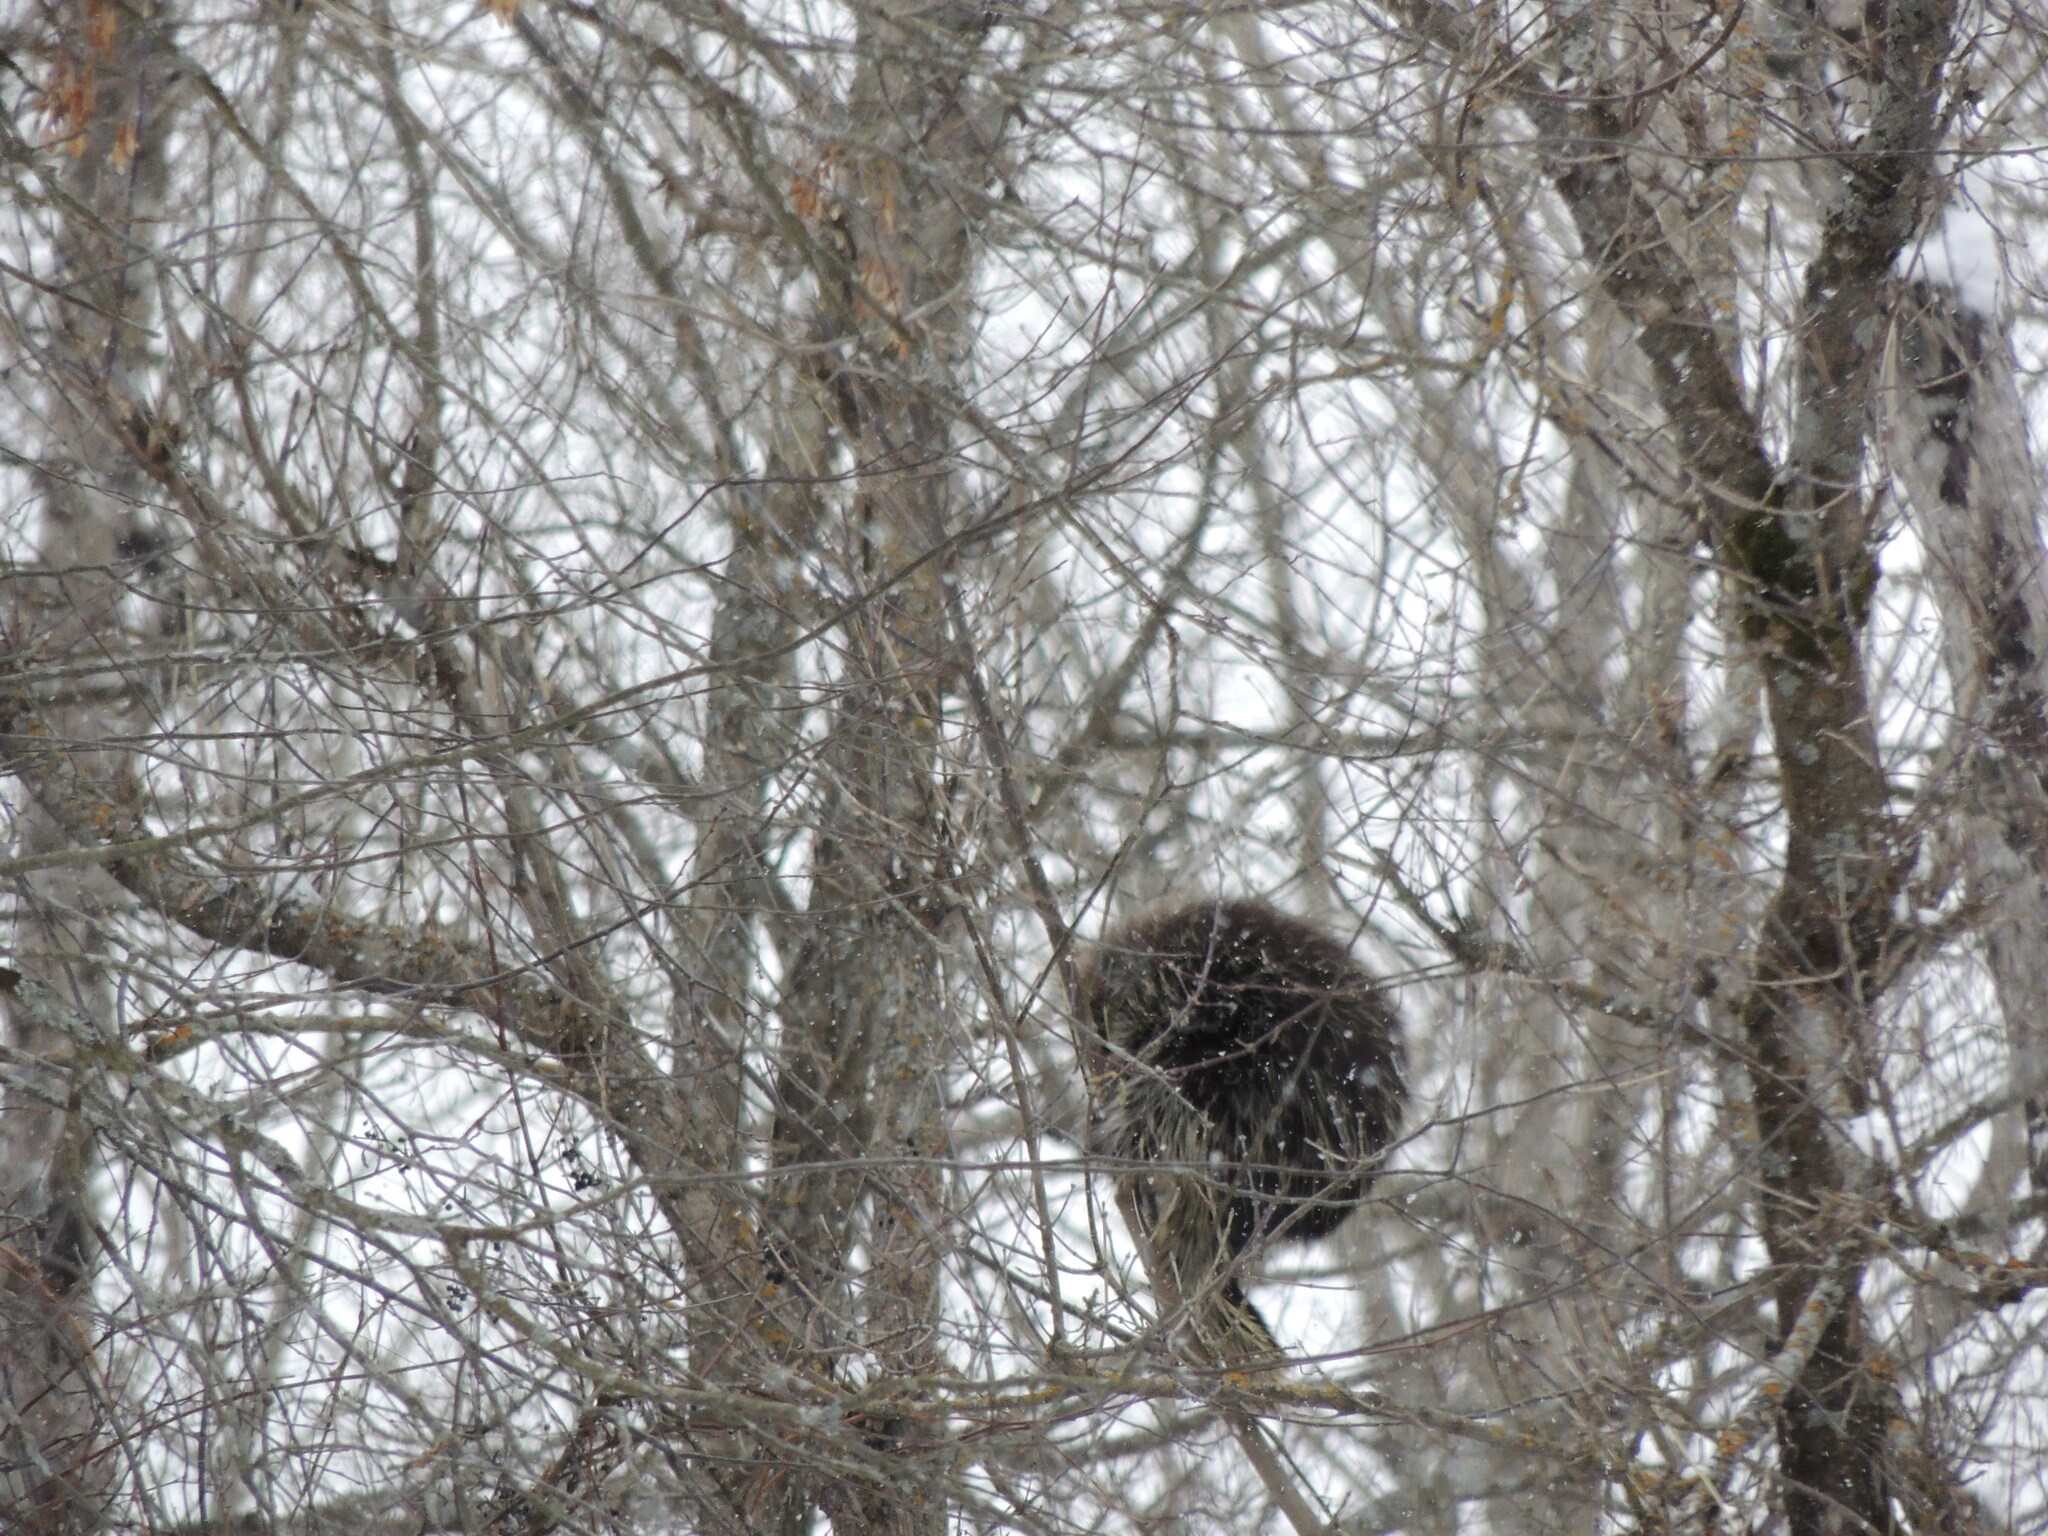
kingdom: Animalia
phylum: Chordata
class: Mammalia
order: Rodentia
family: Erethizontidae
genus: Erethizon
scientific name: Erethizon dorsatus
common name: North american porcupine
